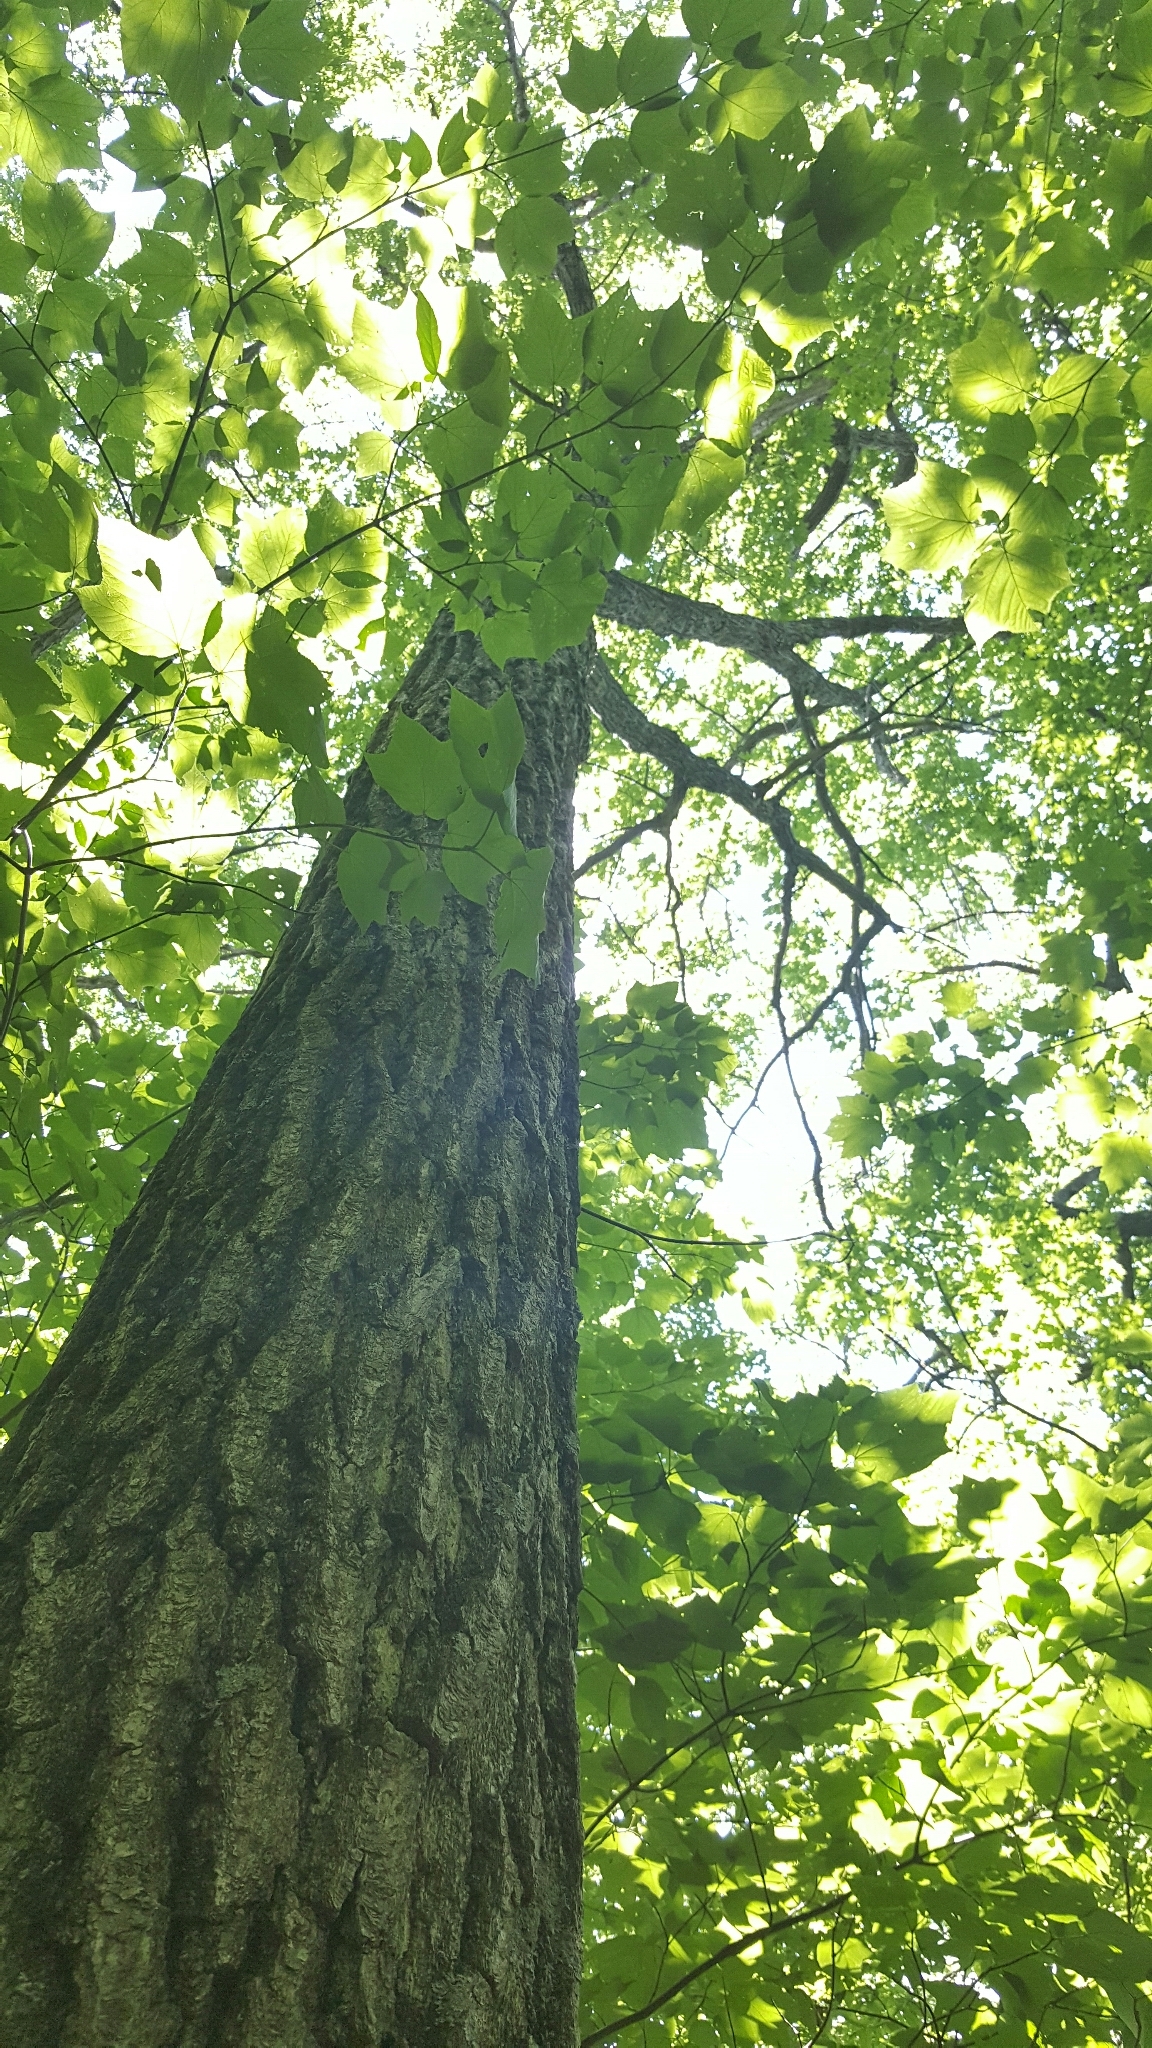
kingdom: Plantae
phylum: Tracheophyta
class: Magnoliopsida
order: Fagales
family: Fagaceae
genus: Quercus
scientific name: Quercus rubra
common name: Red oak
